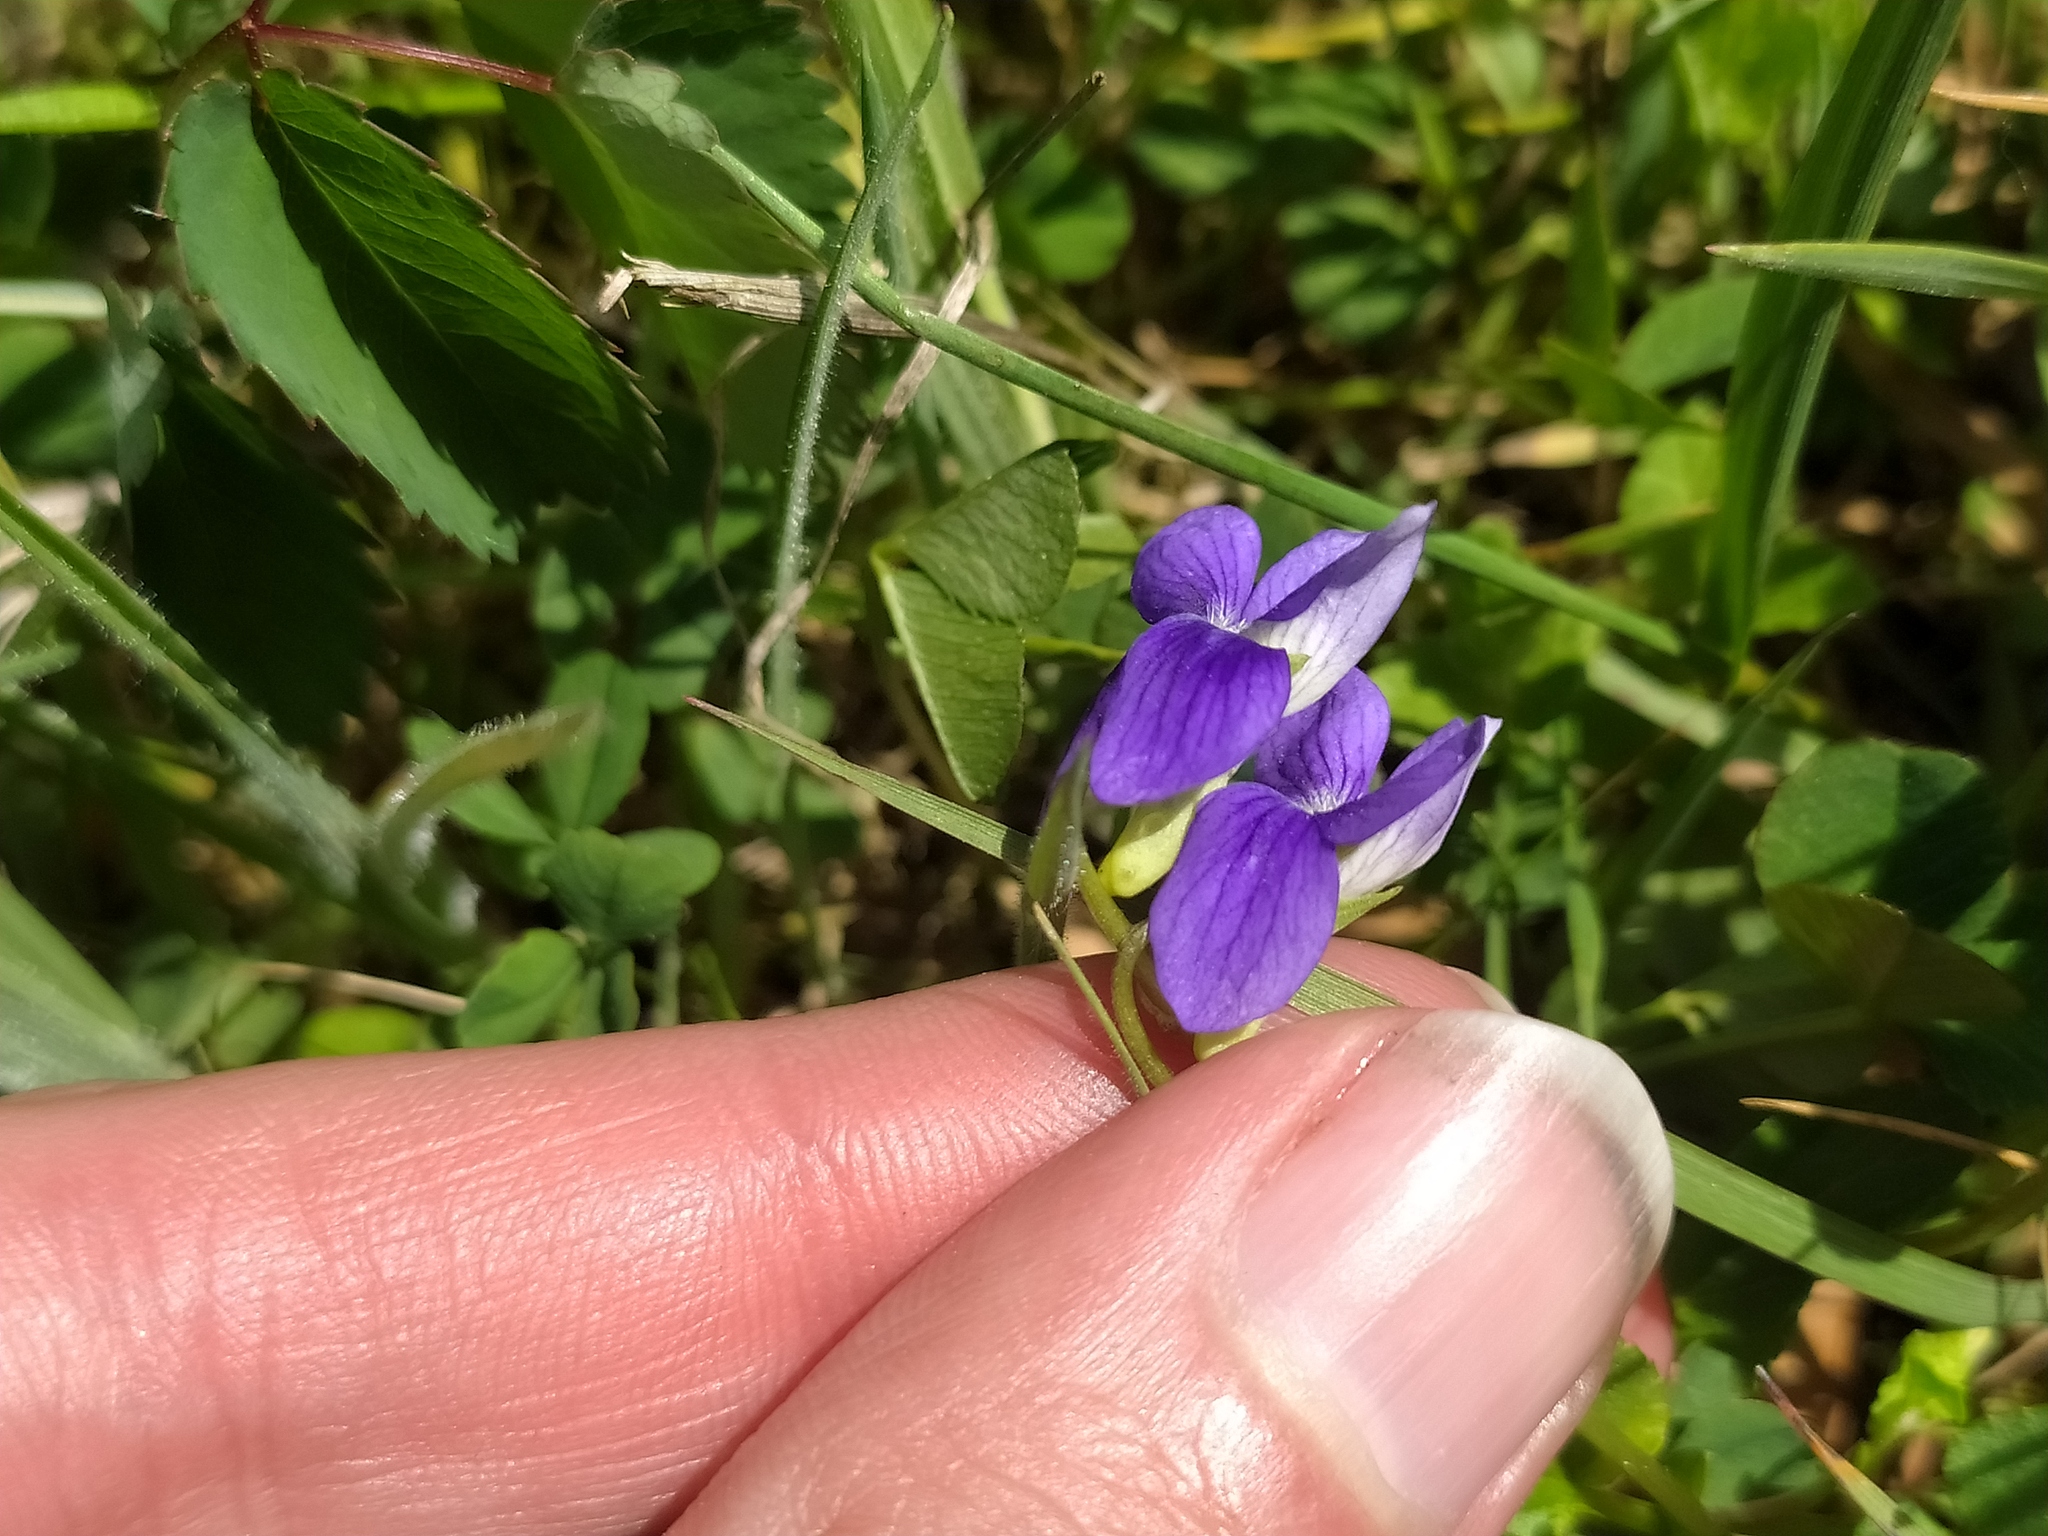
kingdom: Plantae
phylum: Tracheophyta
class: Magnoliopsida
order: Malpighiales
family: Violaceae
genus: Viola
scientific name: Viola canina
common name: Heath dog-violet
